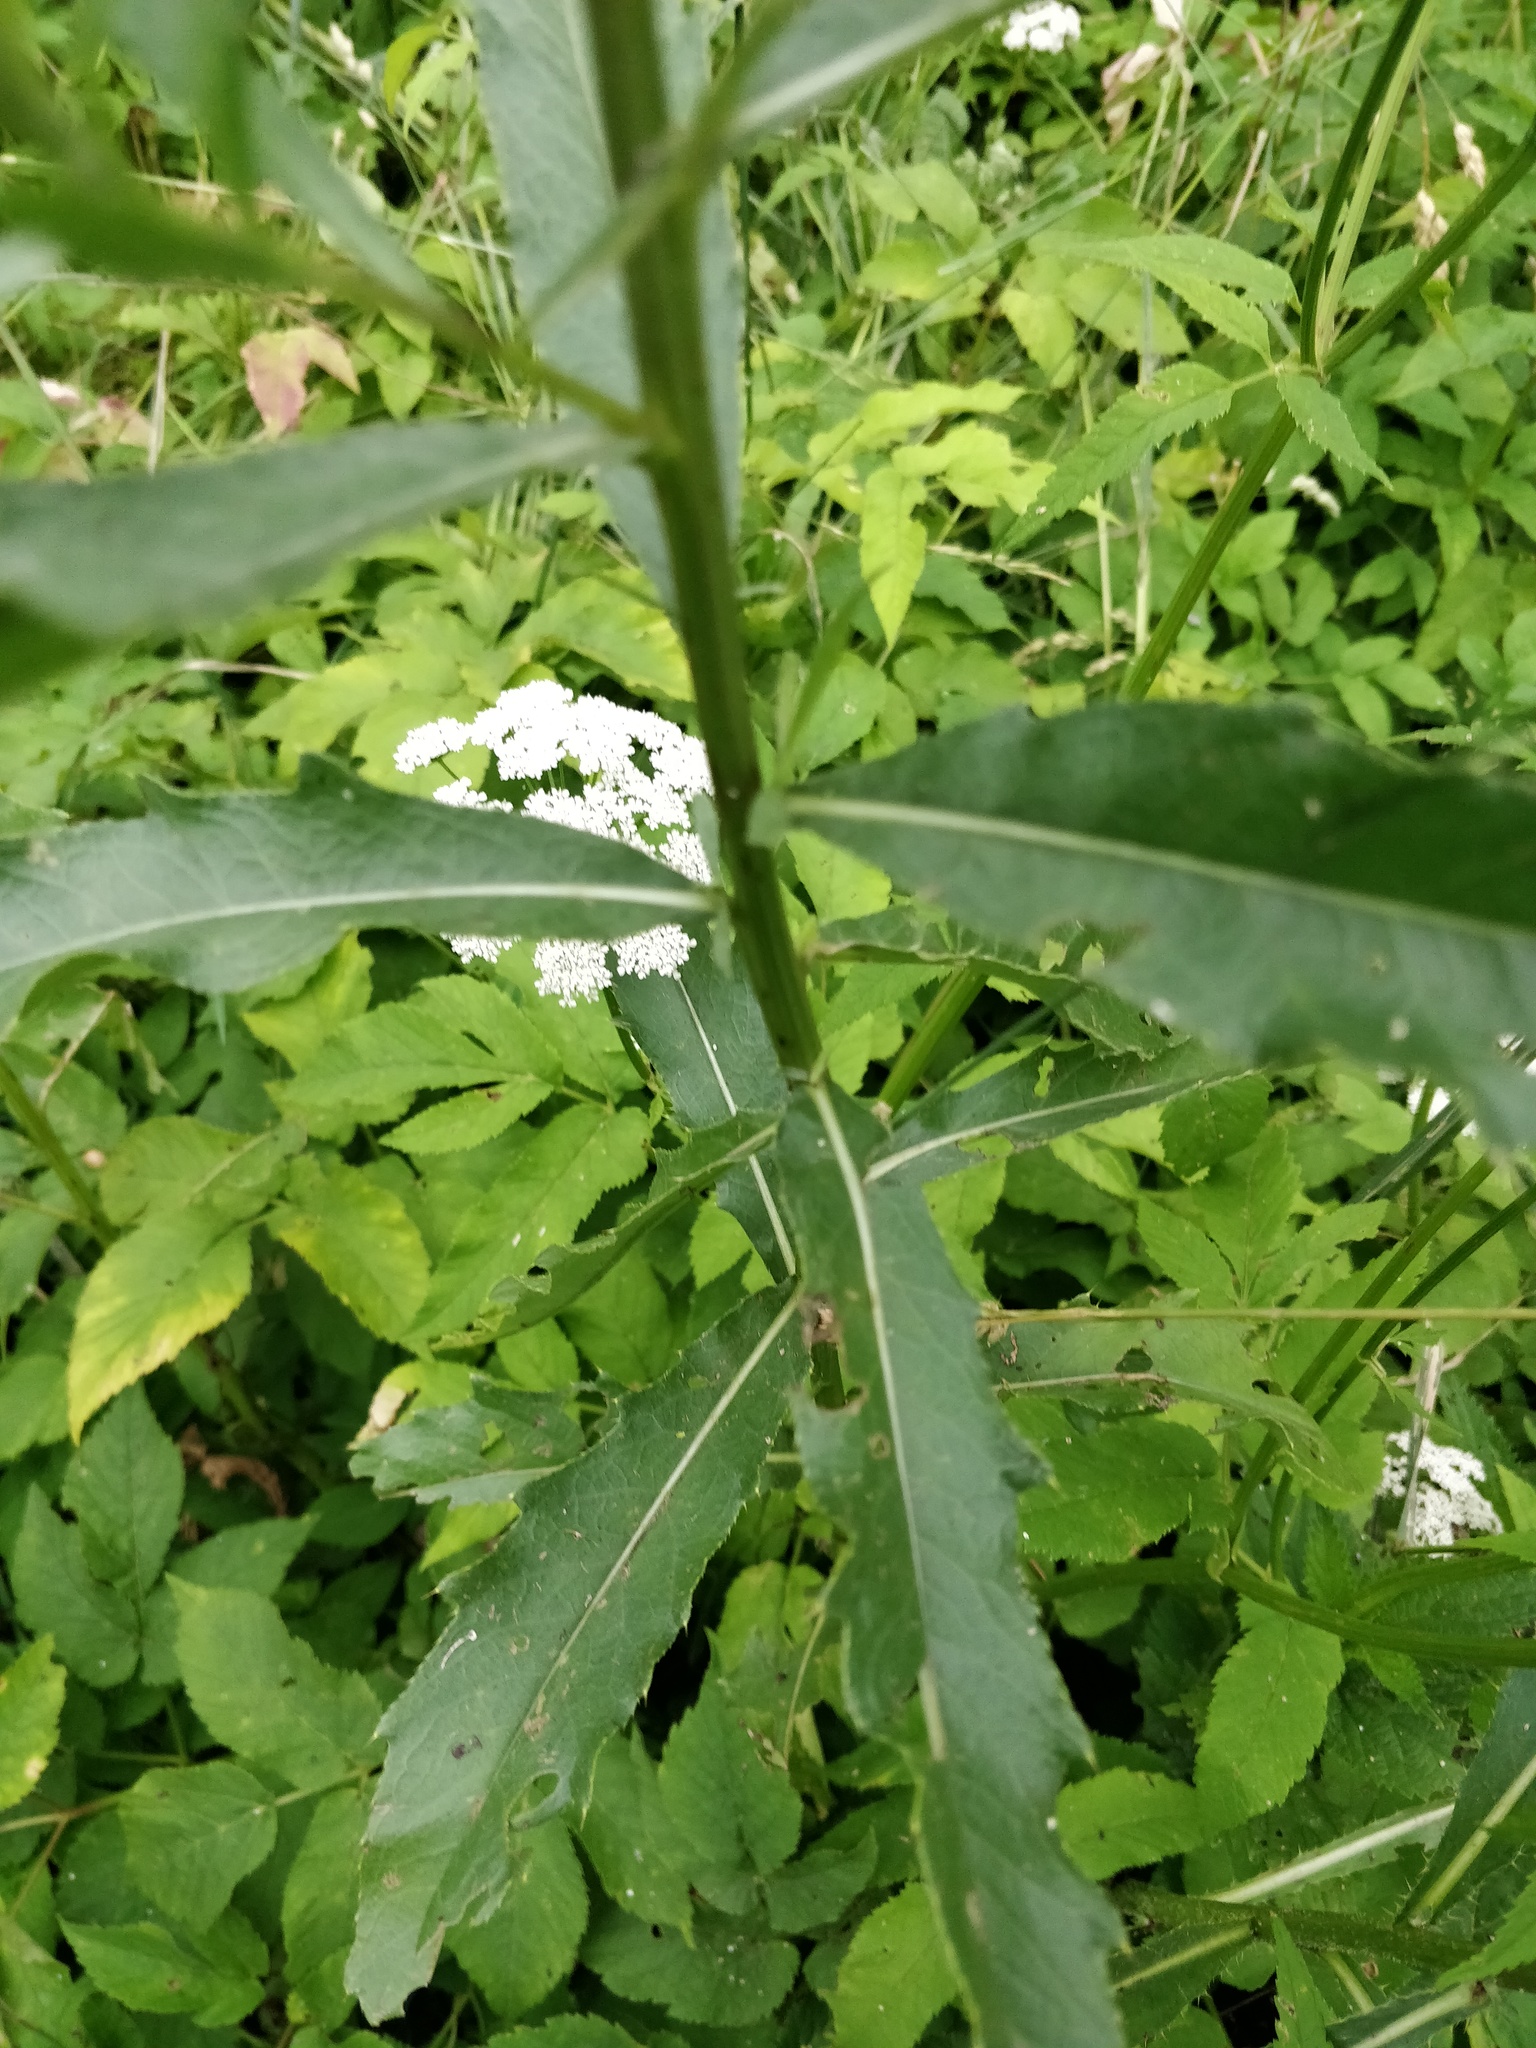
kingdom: Plantae
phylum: Tracheophyta
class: Magnoliopsida
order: Asterales
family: Asteraceae
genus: Cirsium
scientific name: Cirsium arvense
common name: Creeping thistle
